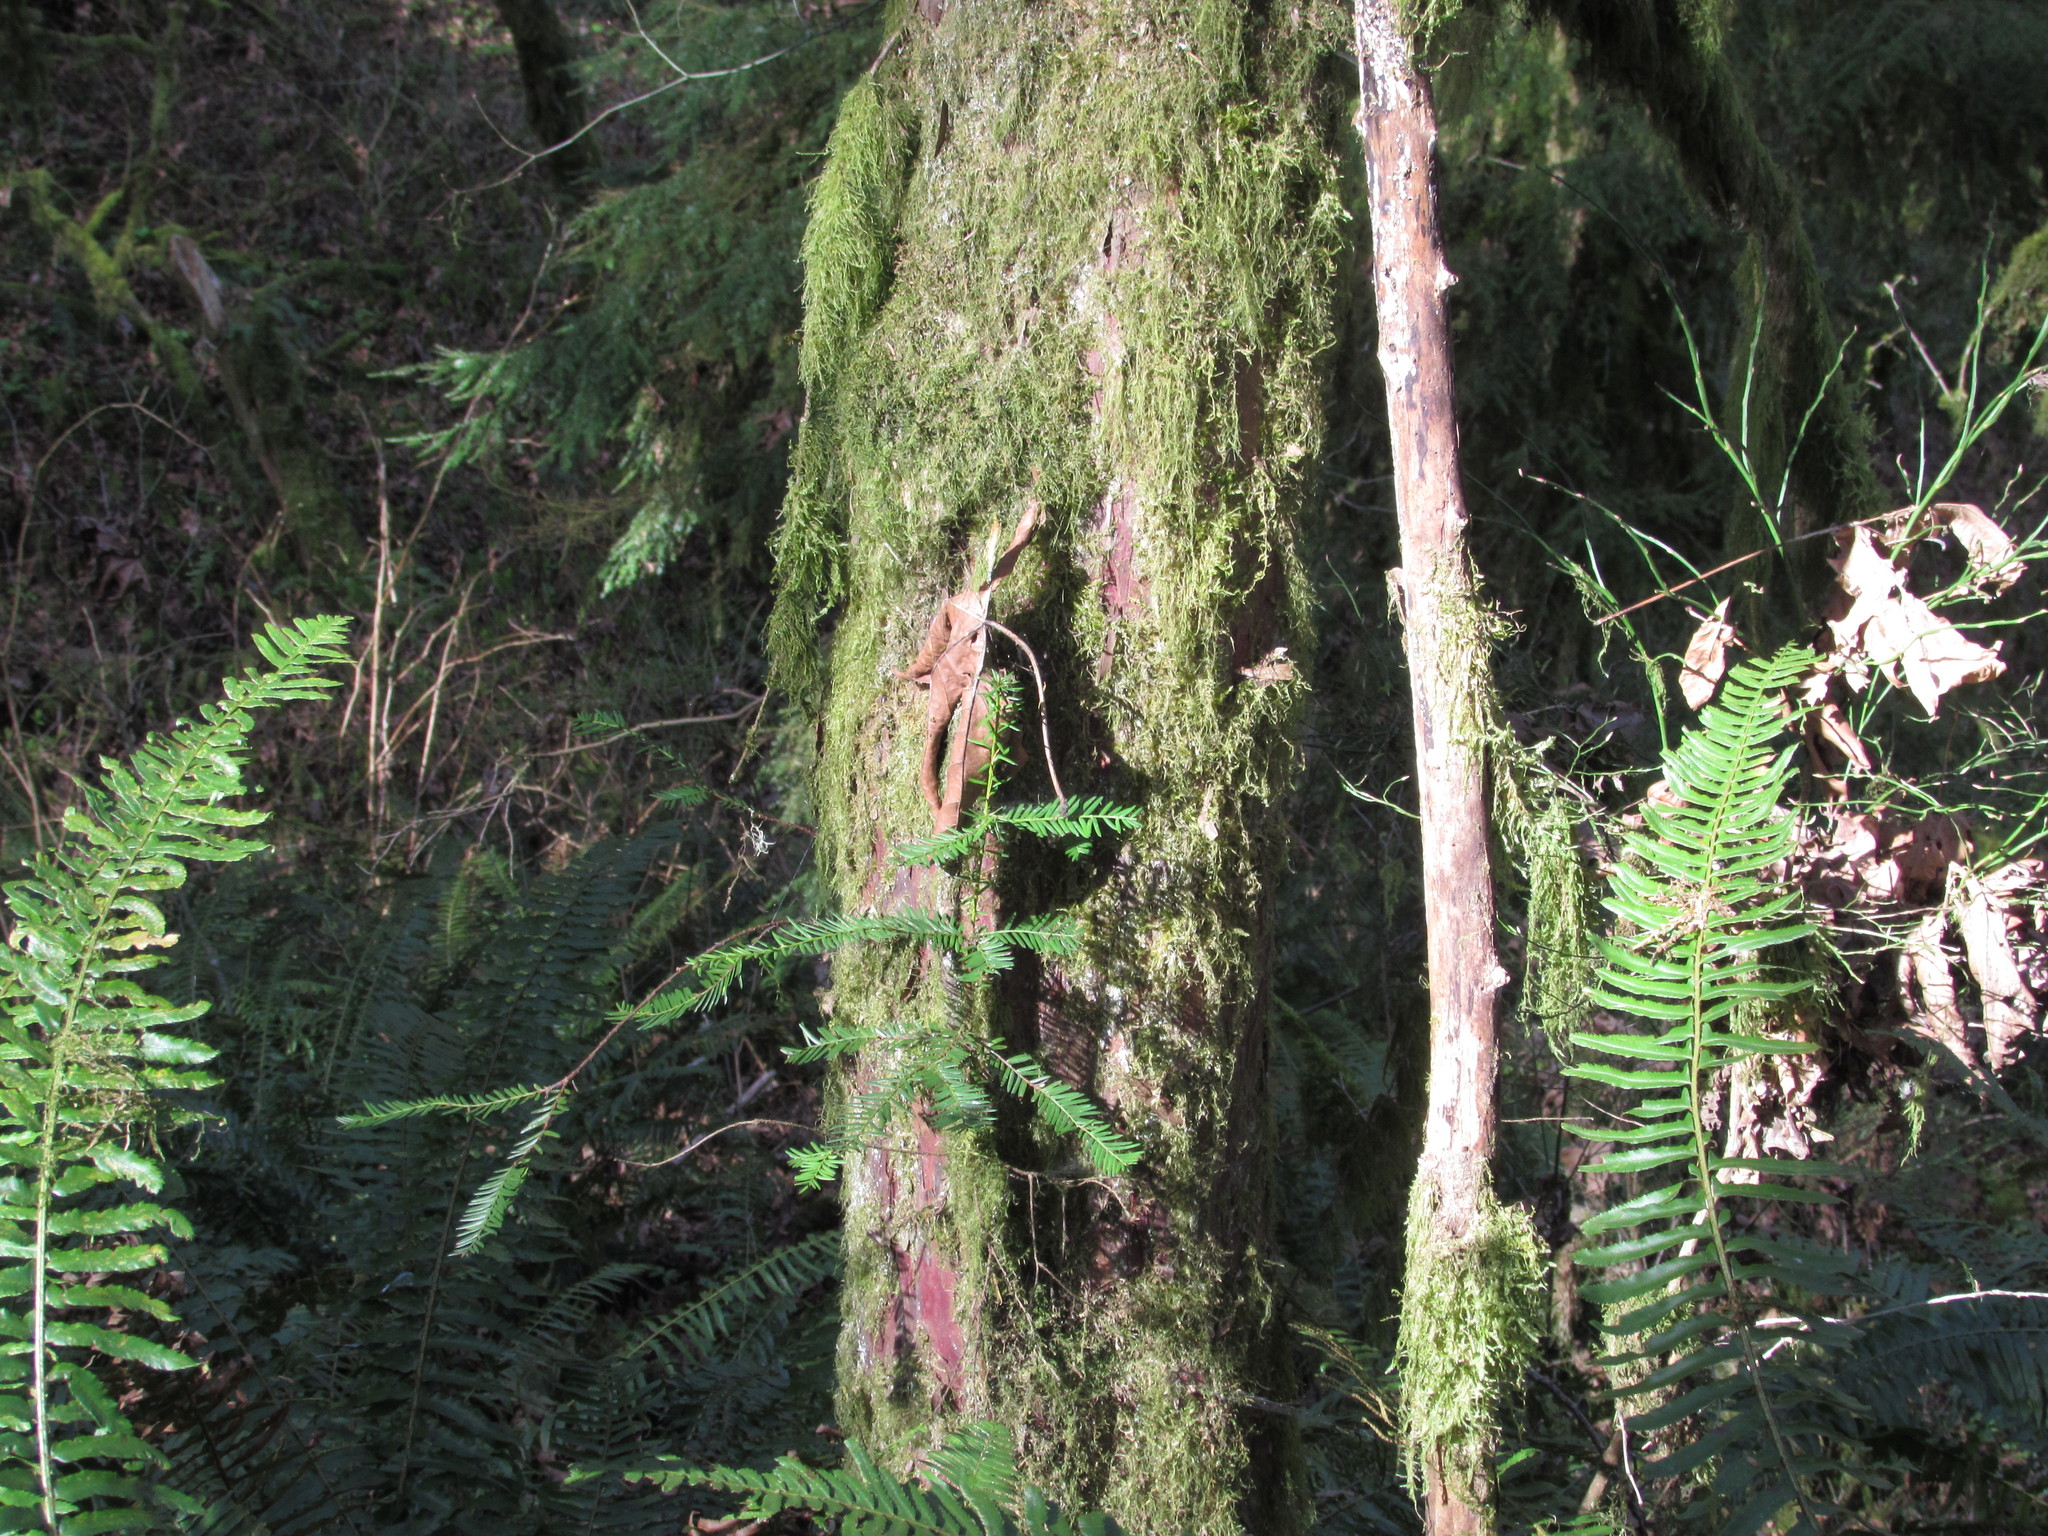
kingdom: Plantae
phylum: Tracheophyta
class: Pinopsida
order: Pinales
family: Taxaceae
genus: Taxus
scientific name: Taxus brevifolia
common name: Pacific yew
